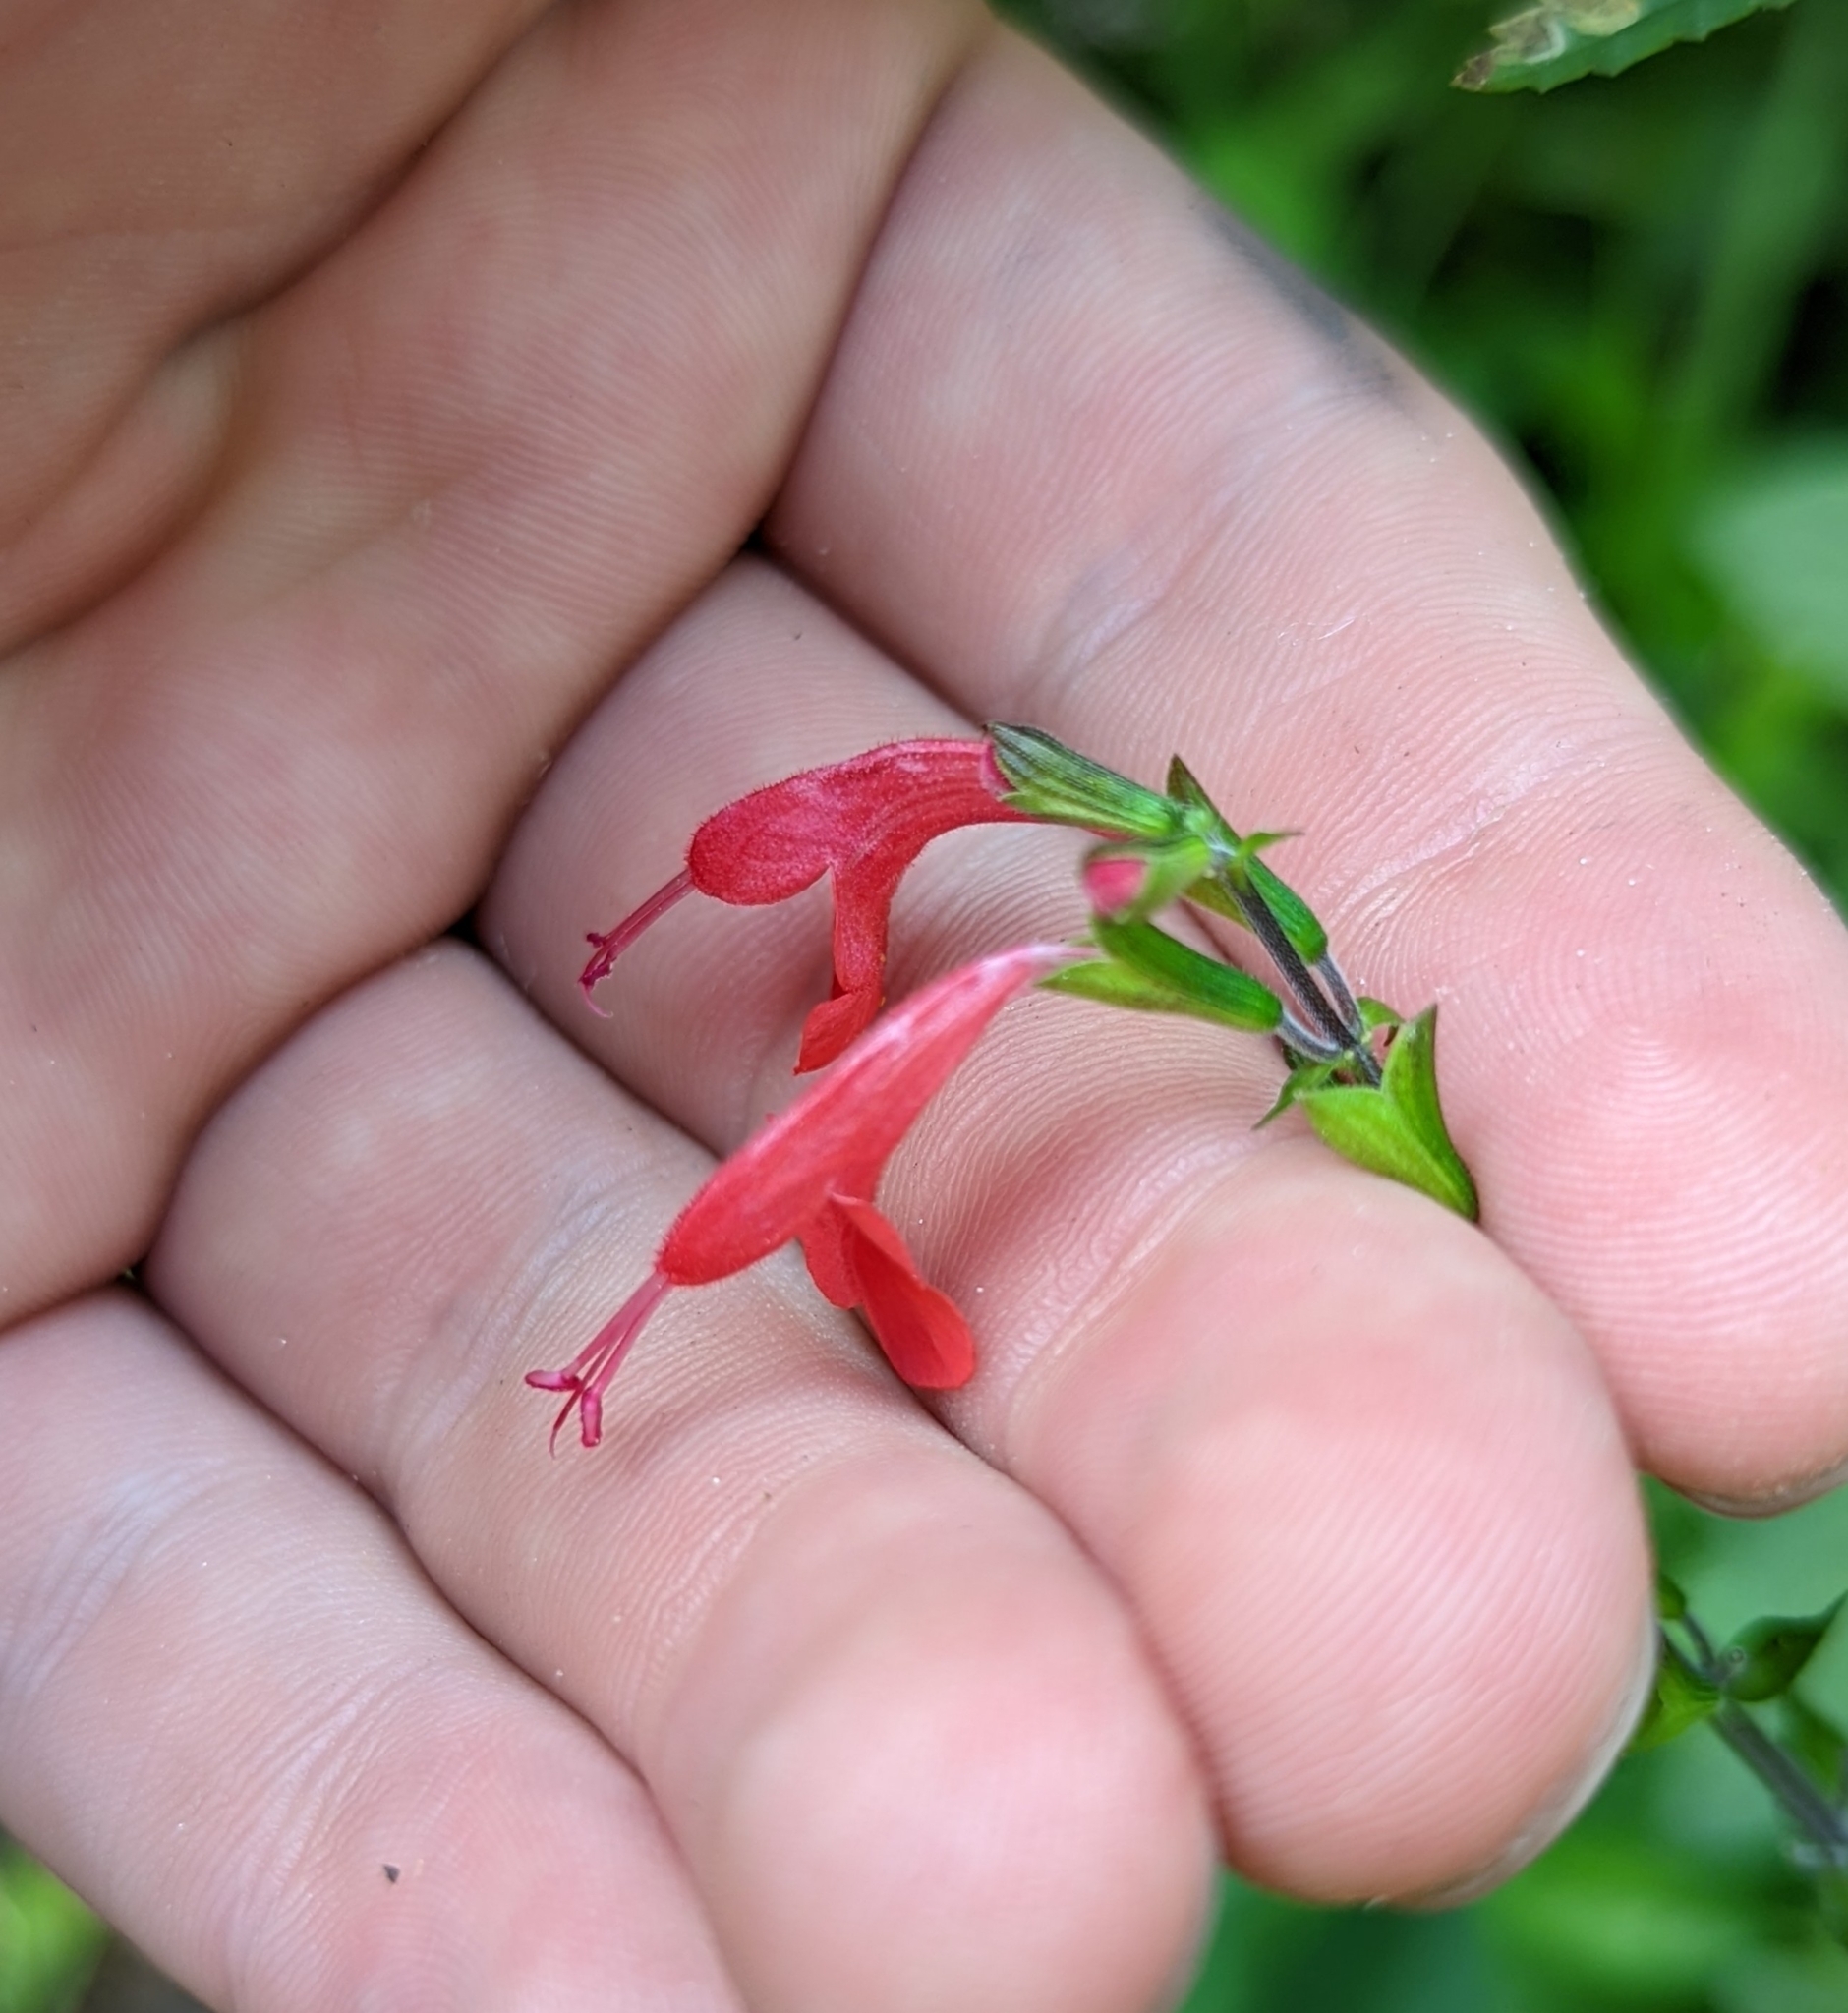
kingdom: Plantae
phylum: Tracheophyta
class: Magnoliopsida
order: Lamiales
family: Lamiaceae
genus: Salvia
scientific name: Salvia coccinea
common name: Blood sage
